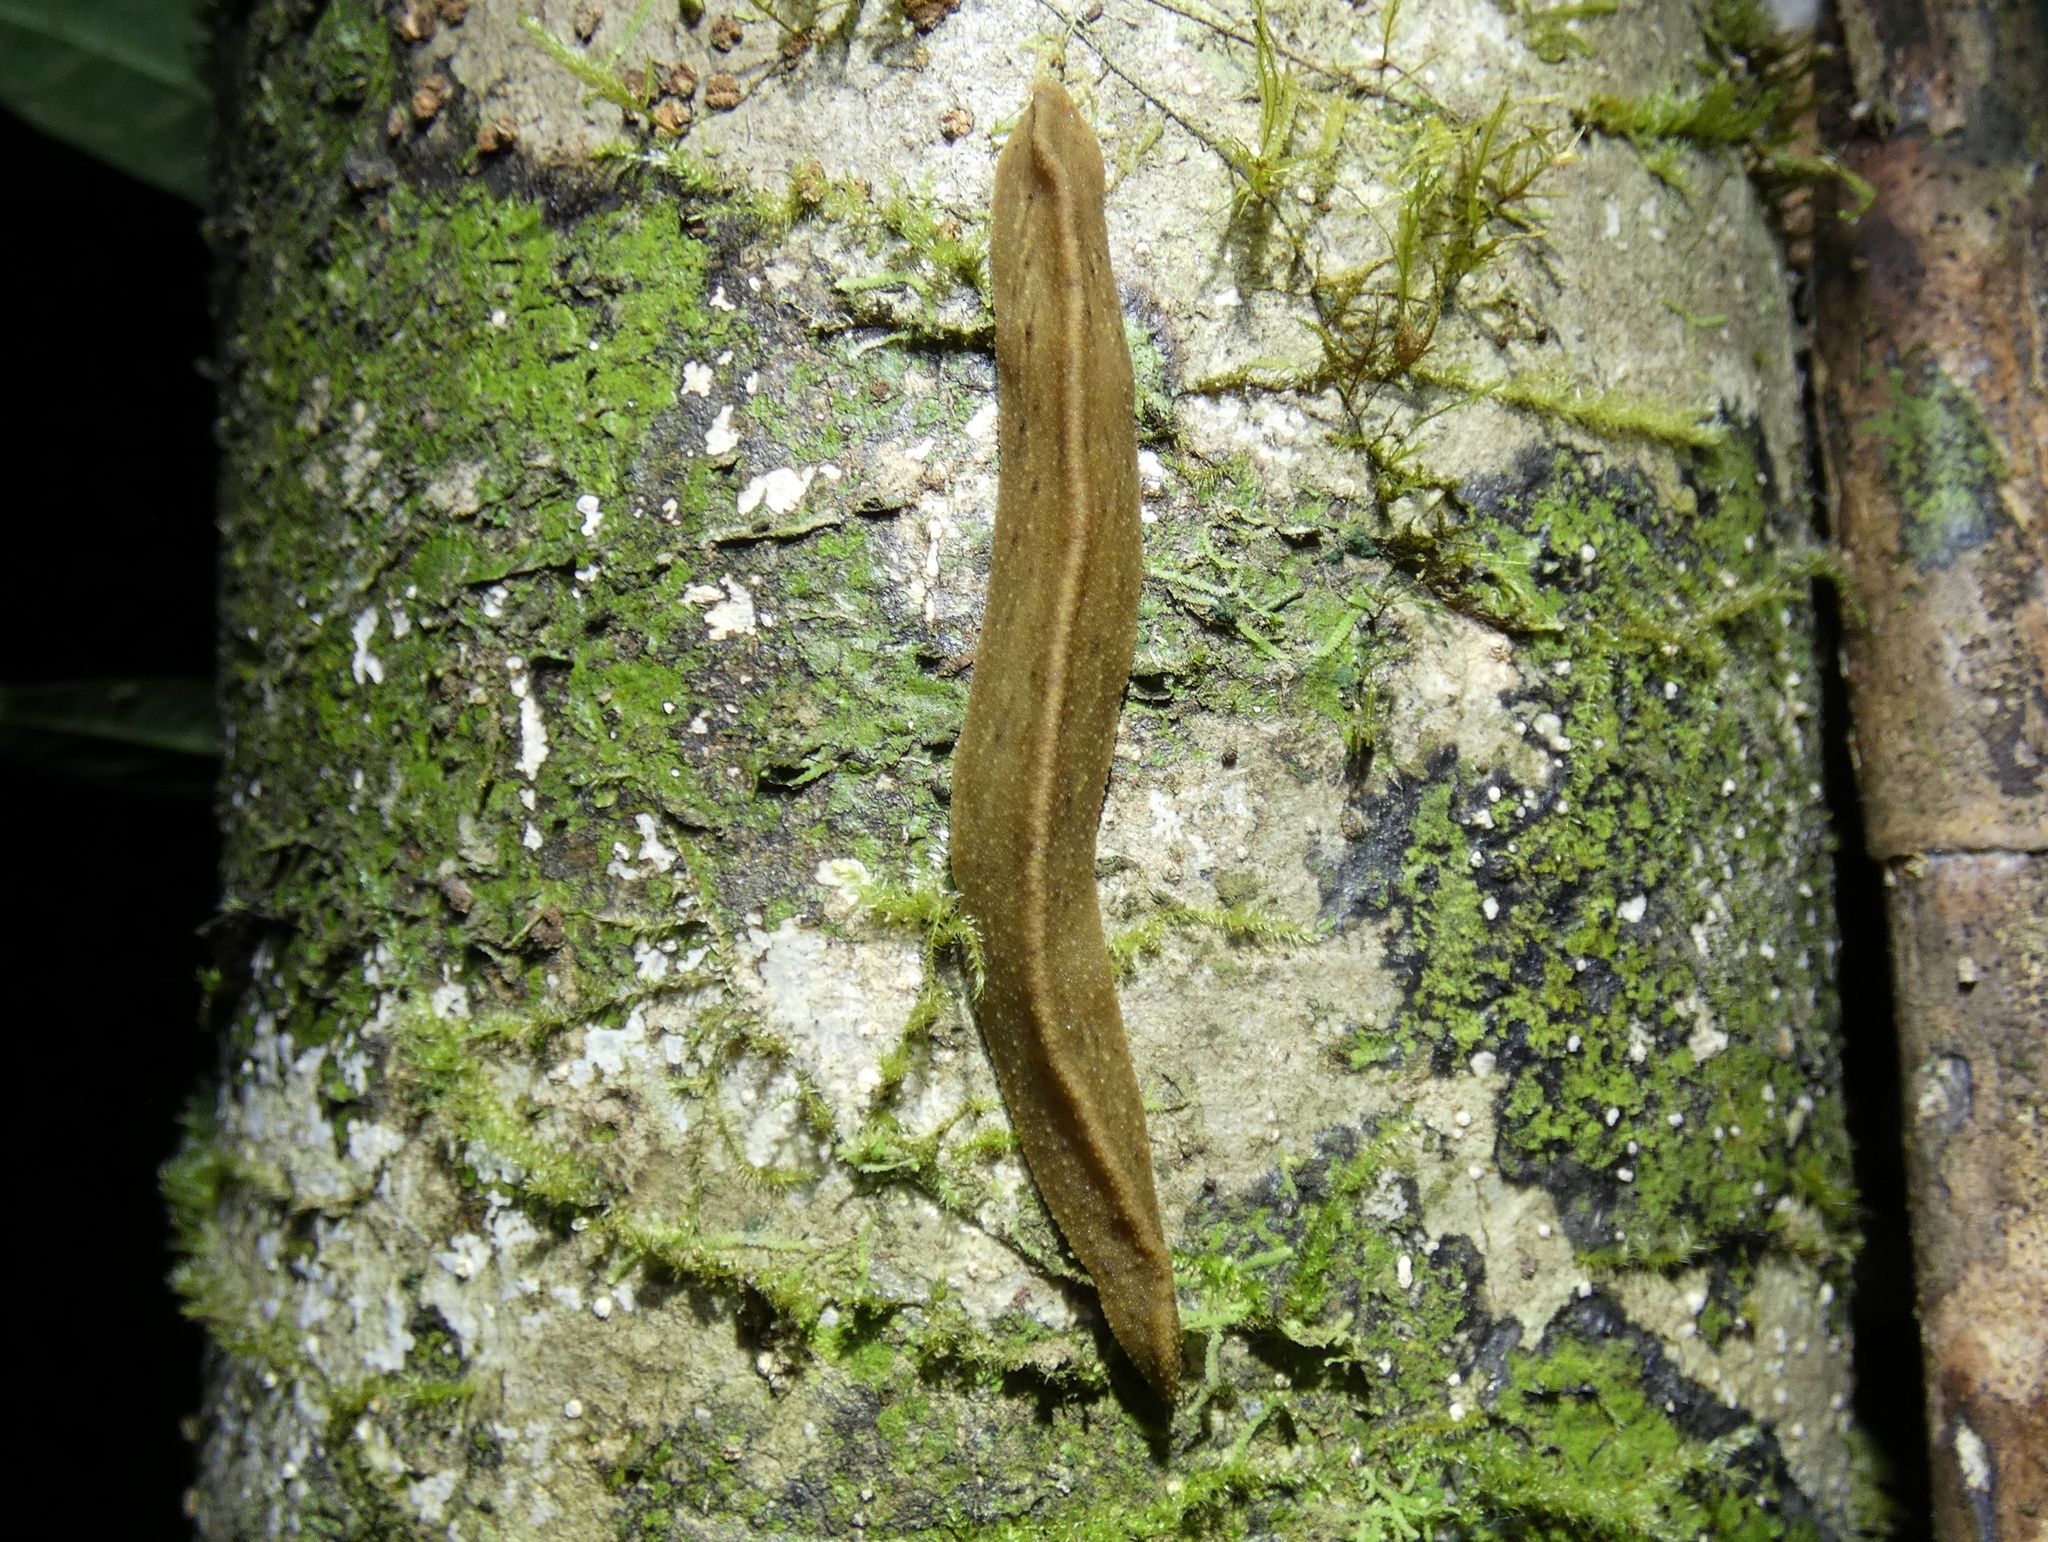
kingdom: Animalia
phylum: Mollusca
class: Gastropoda
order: Systellommatophora
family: Rathouisiidae
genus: Atopos
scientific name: Atopos australis
